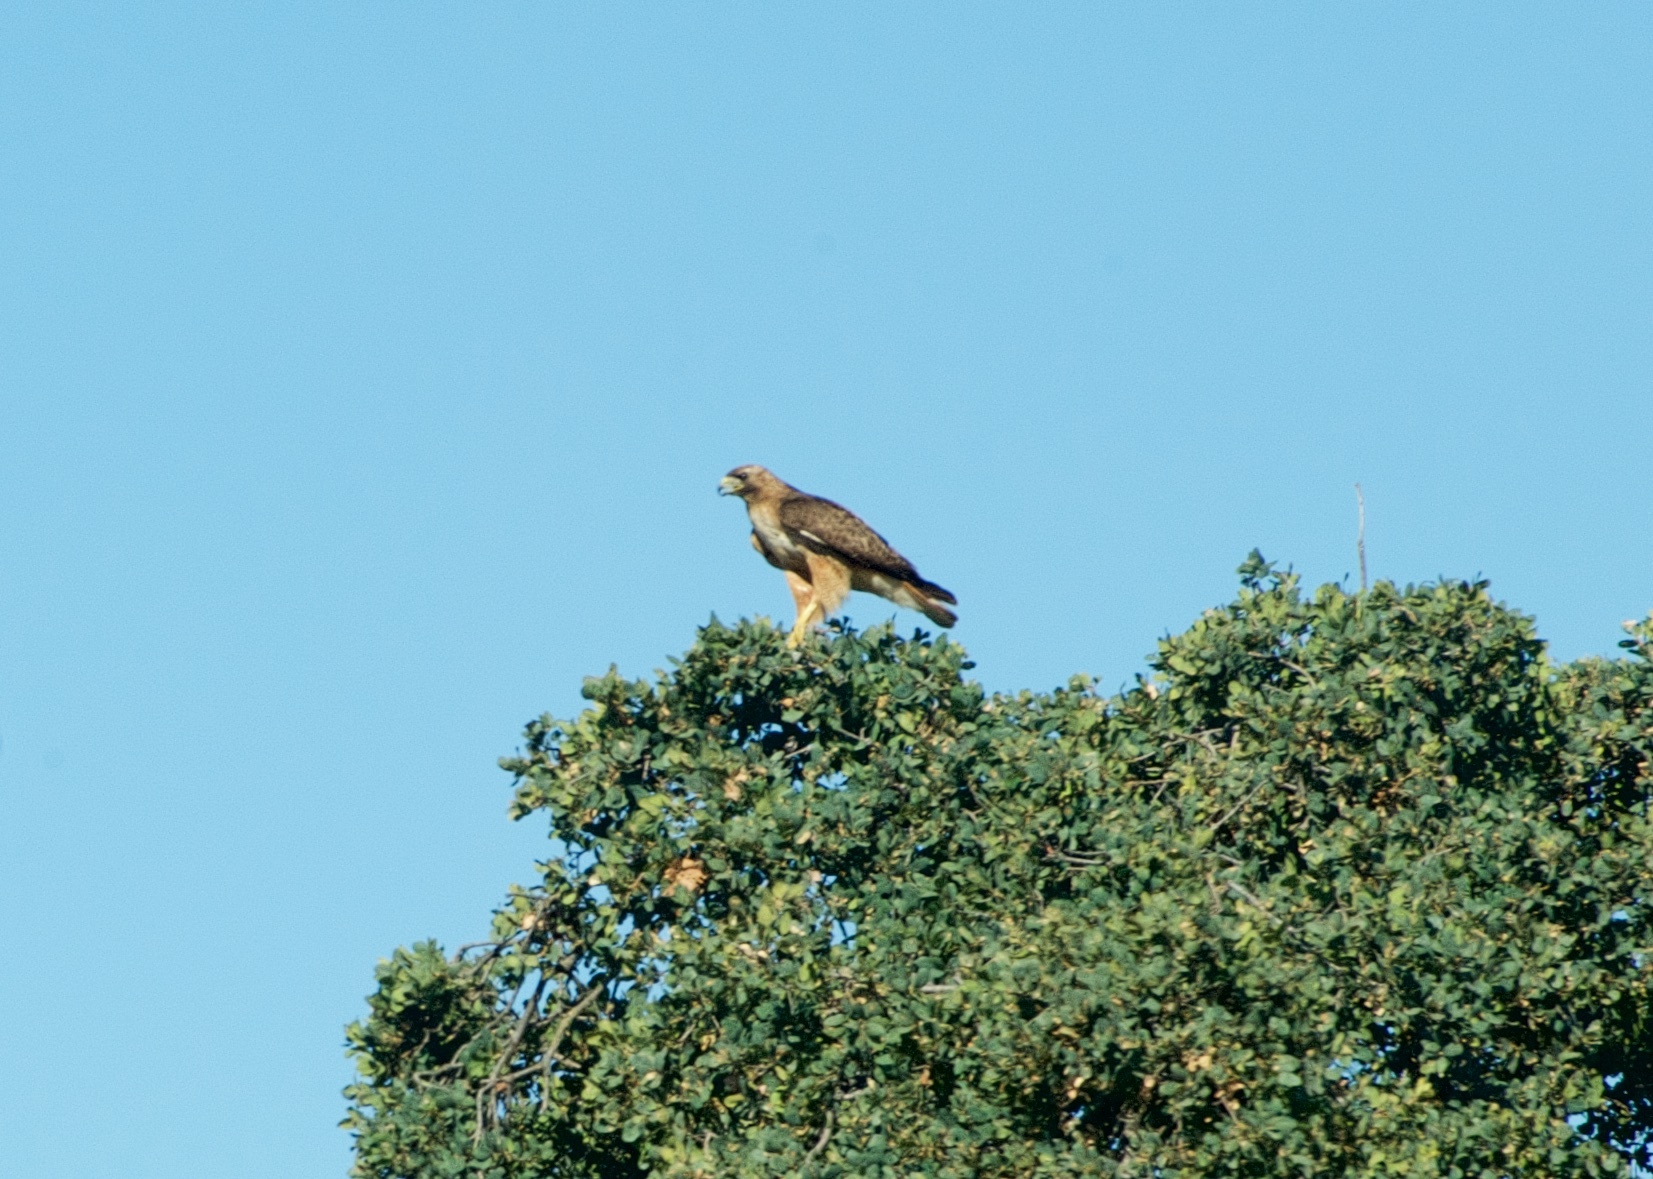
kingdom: Animalia
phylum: Chordata
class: Aves
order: Accipitriformes
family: Accipitridae
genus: Buteo
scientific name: Buteo jamaicensis
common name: Red-tailed hawk
